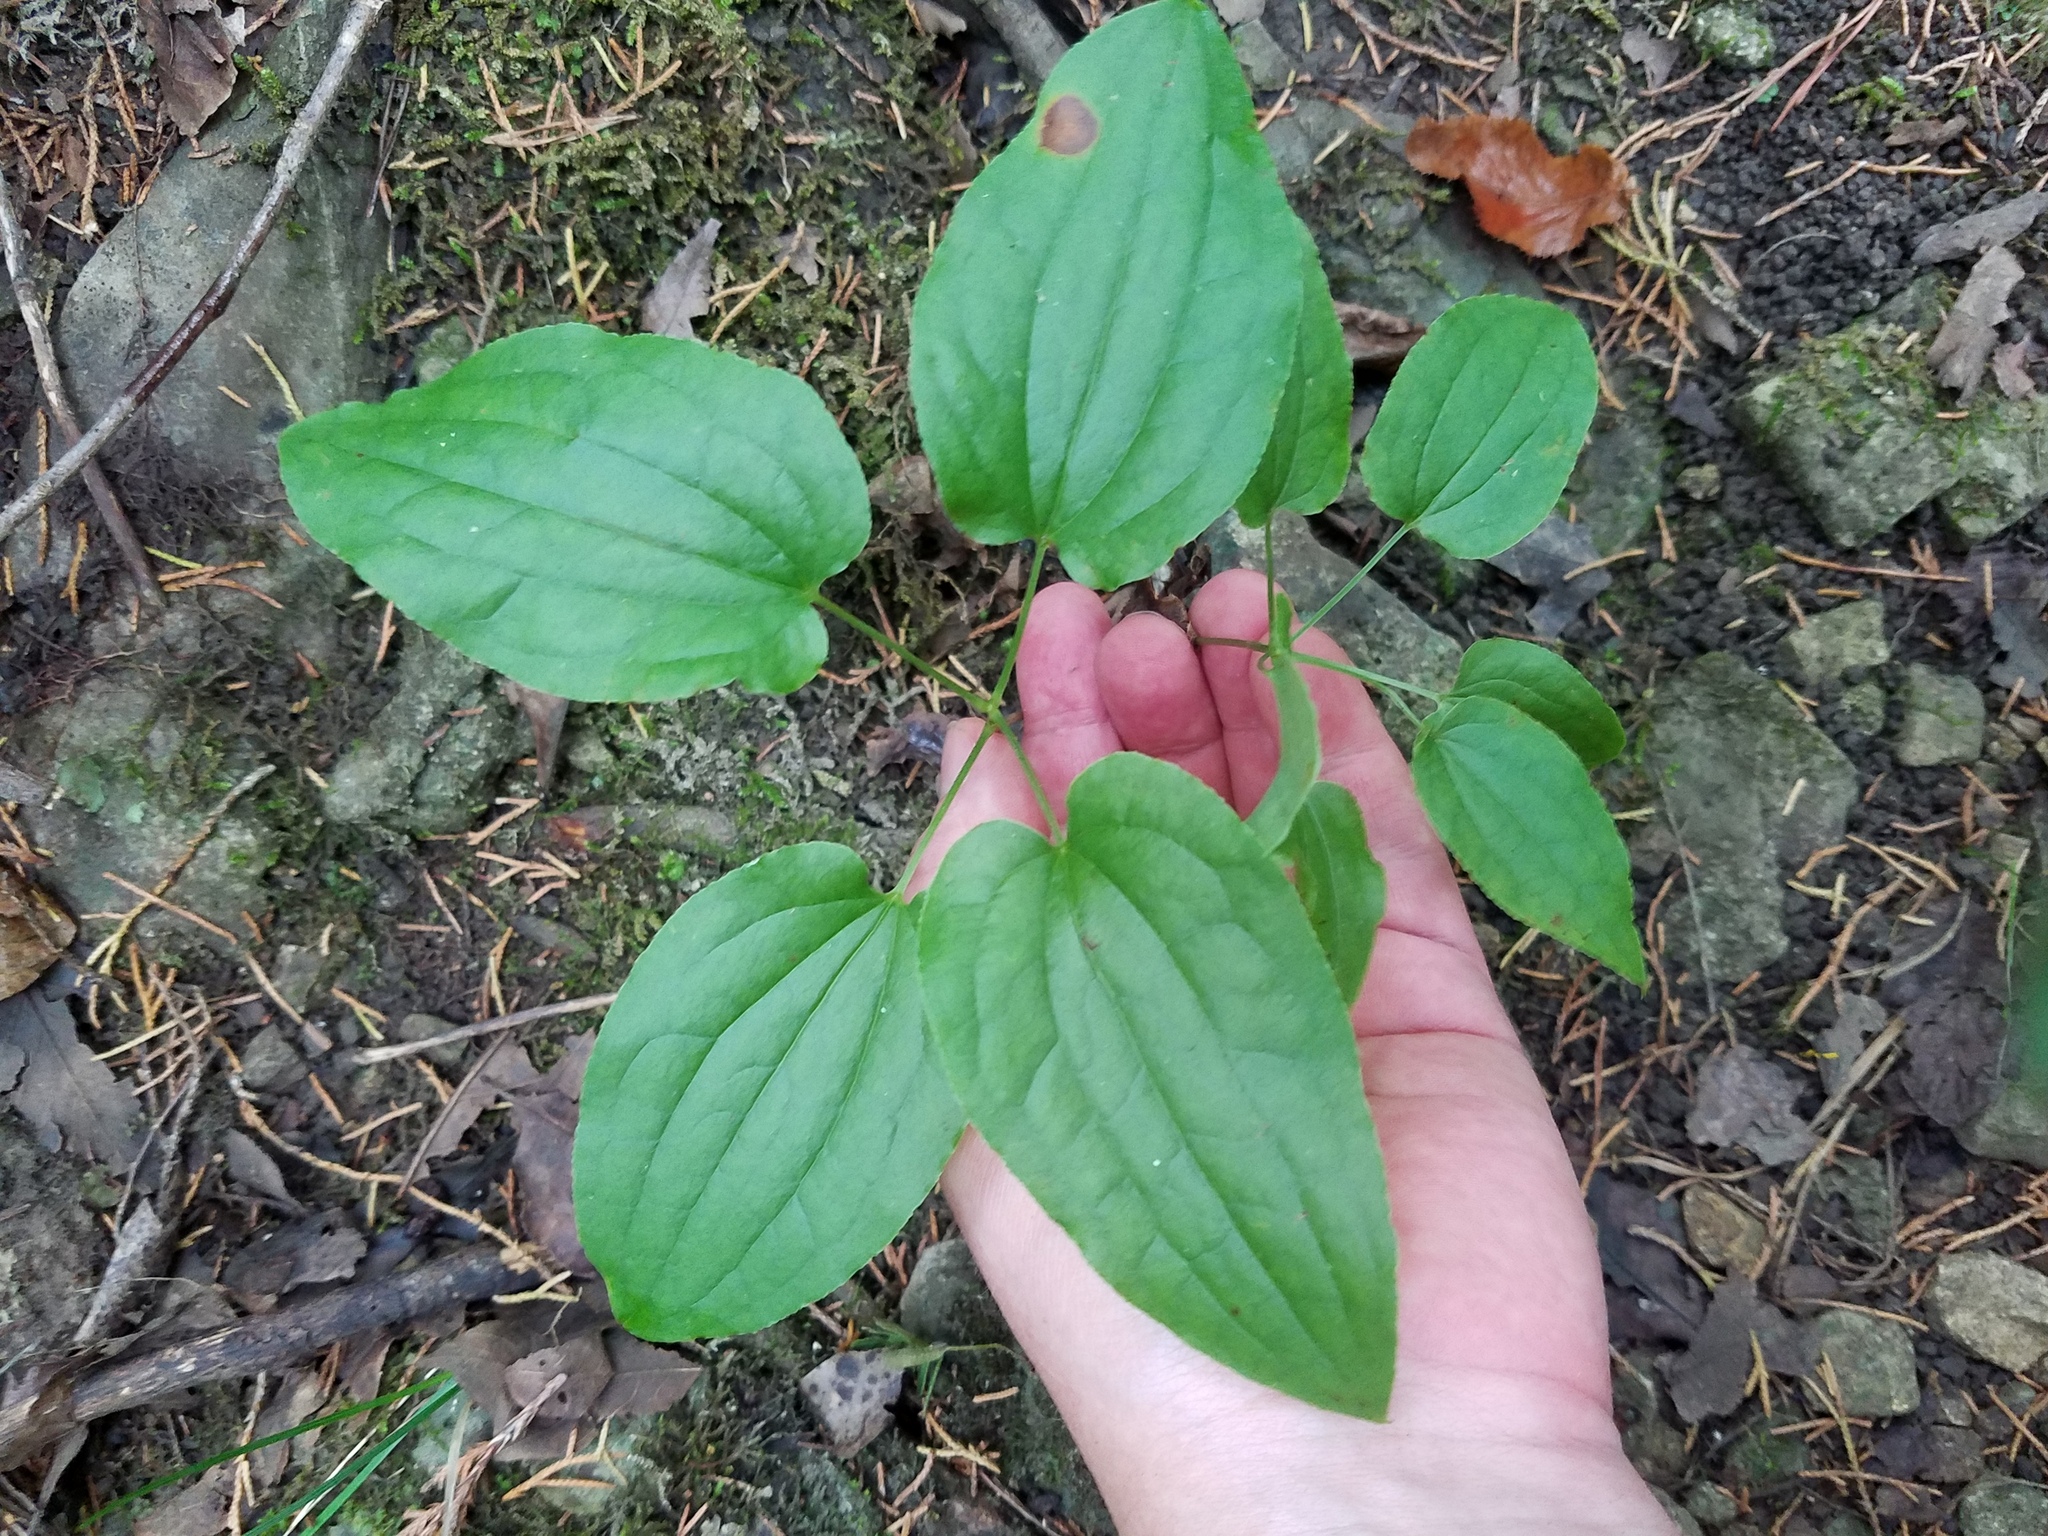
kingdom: Plantae
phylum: Tracheophyta
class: Liliopsida
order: Liliales
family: Smilacaceae
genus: Smilax
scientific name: Smilax pulverulenta
